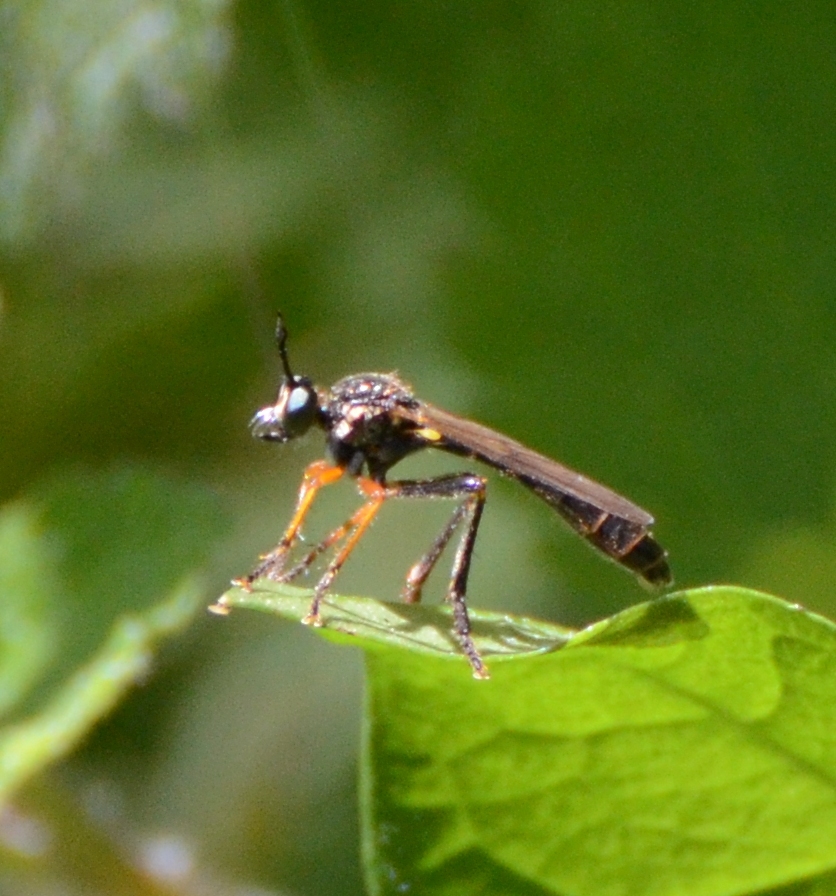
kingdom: Animalia
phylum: Arthropoda
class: Insecta
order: Diptera
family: Asilidae
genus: Dioctria
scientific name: Dioctria rufipes
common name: Common red-legged robberfly
